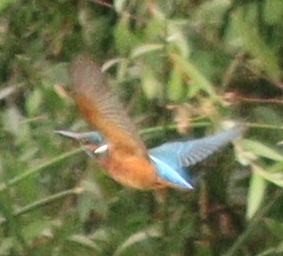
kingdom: Animalia
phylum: Chordata
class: Aves
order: Coraciiformes
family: Alcedinidae
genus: Alcedo
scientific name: Alcedo atthis
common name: Common kingfisher
